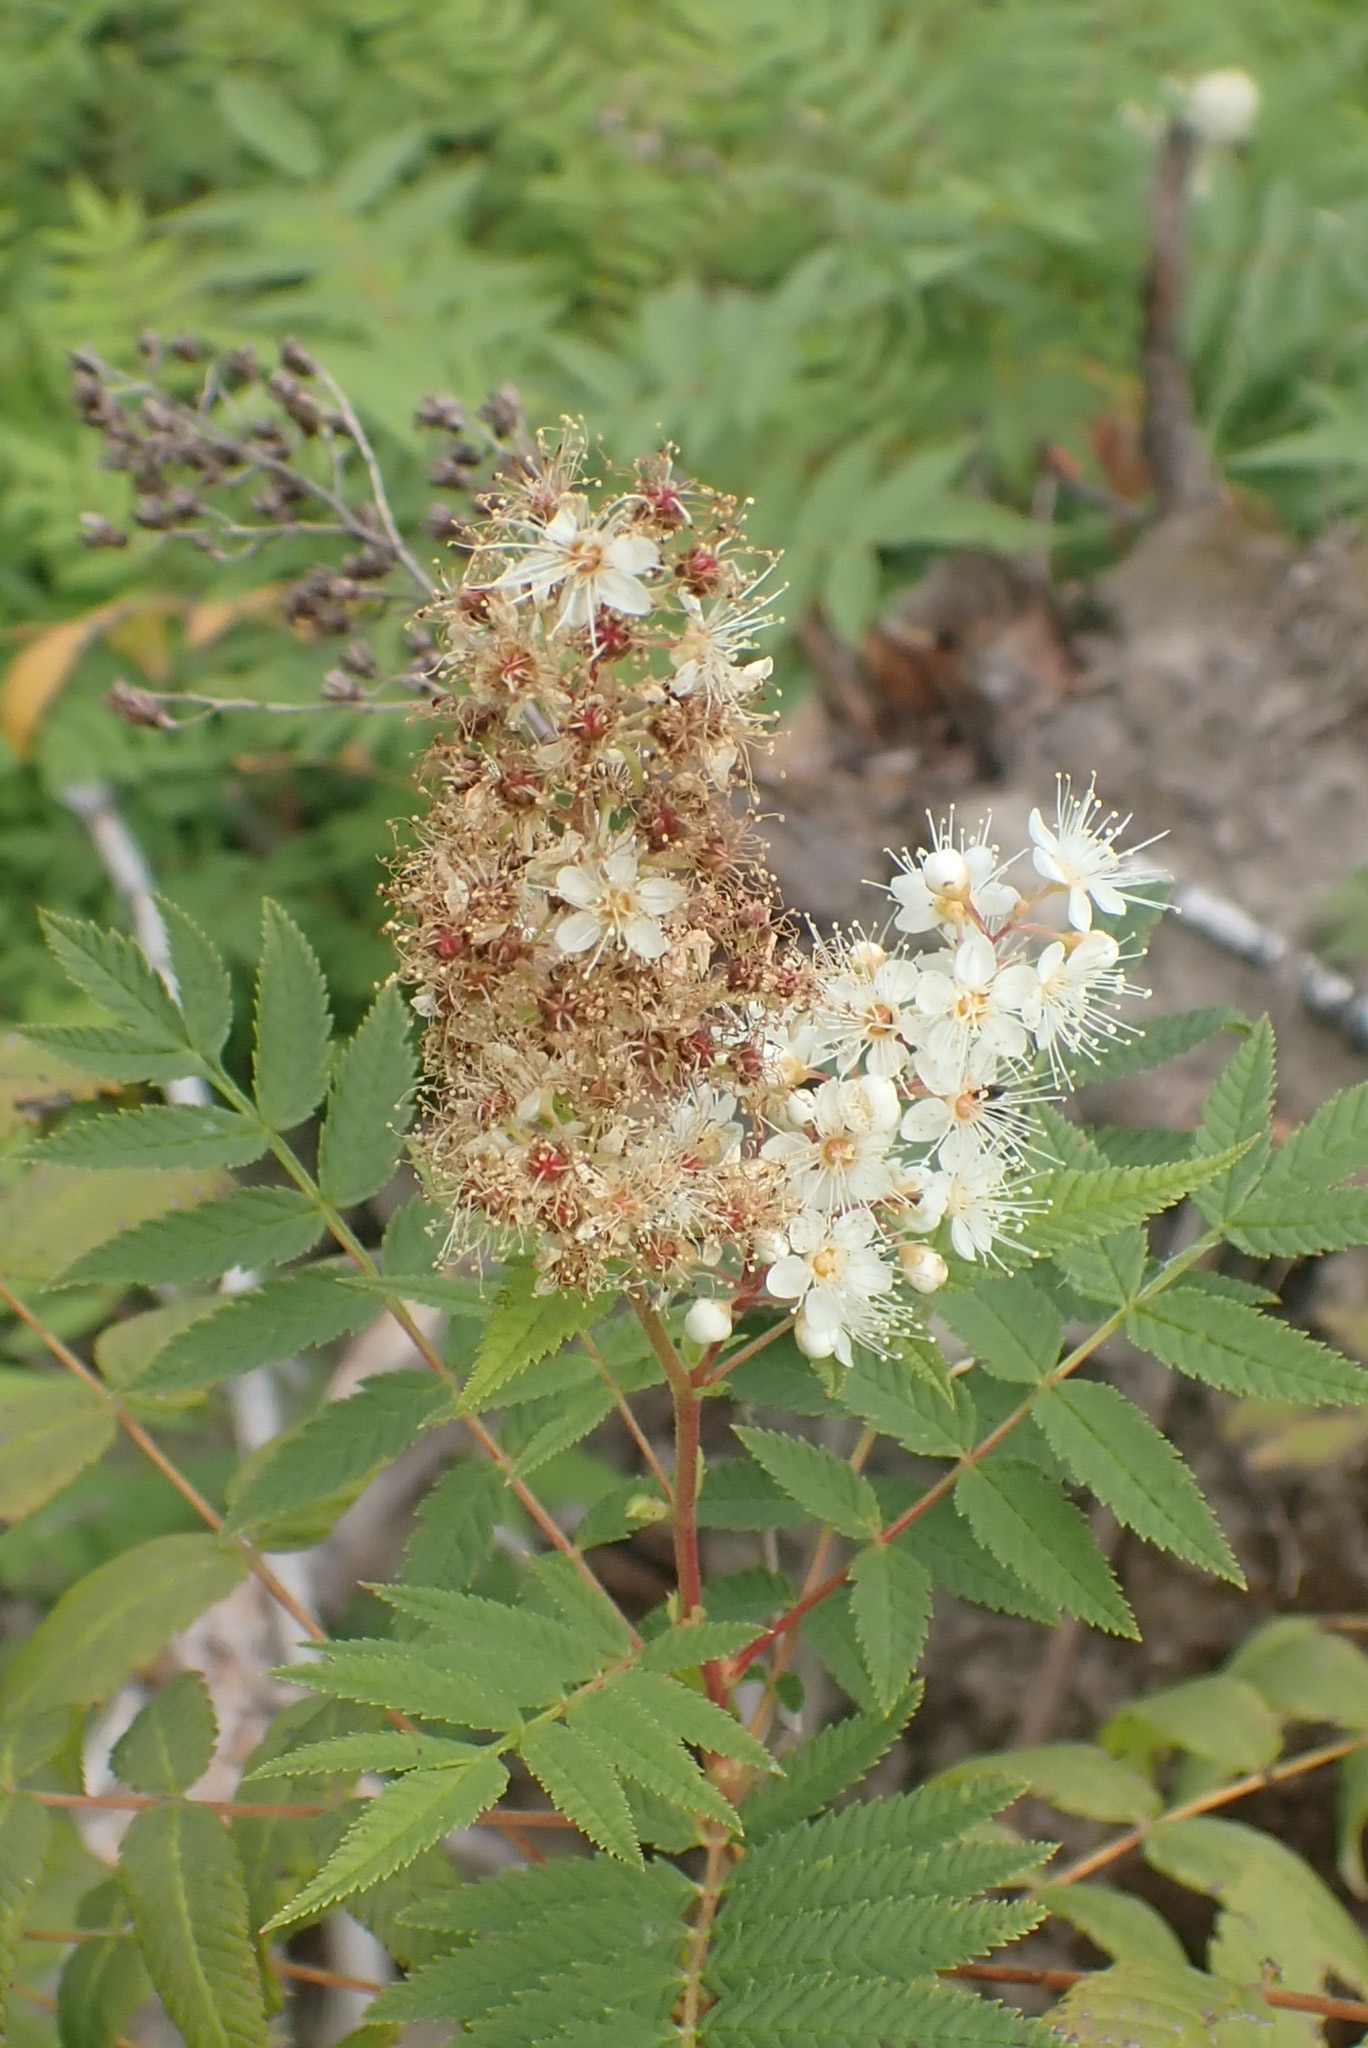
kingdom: Plantae
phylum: Tracheophyta
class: Magnoliopsida
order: Rosales
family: Rosaceae
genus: Sorbaria
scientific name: Sorbaria sorbifolia
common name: False spiraea
